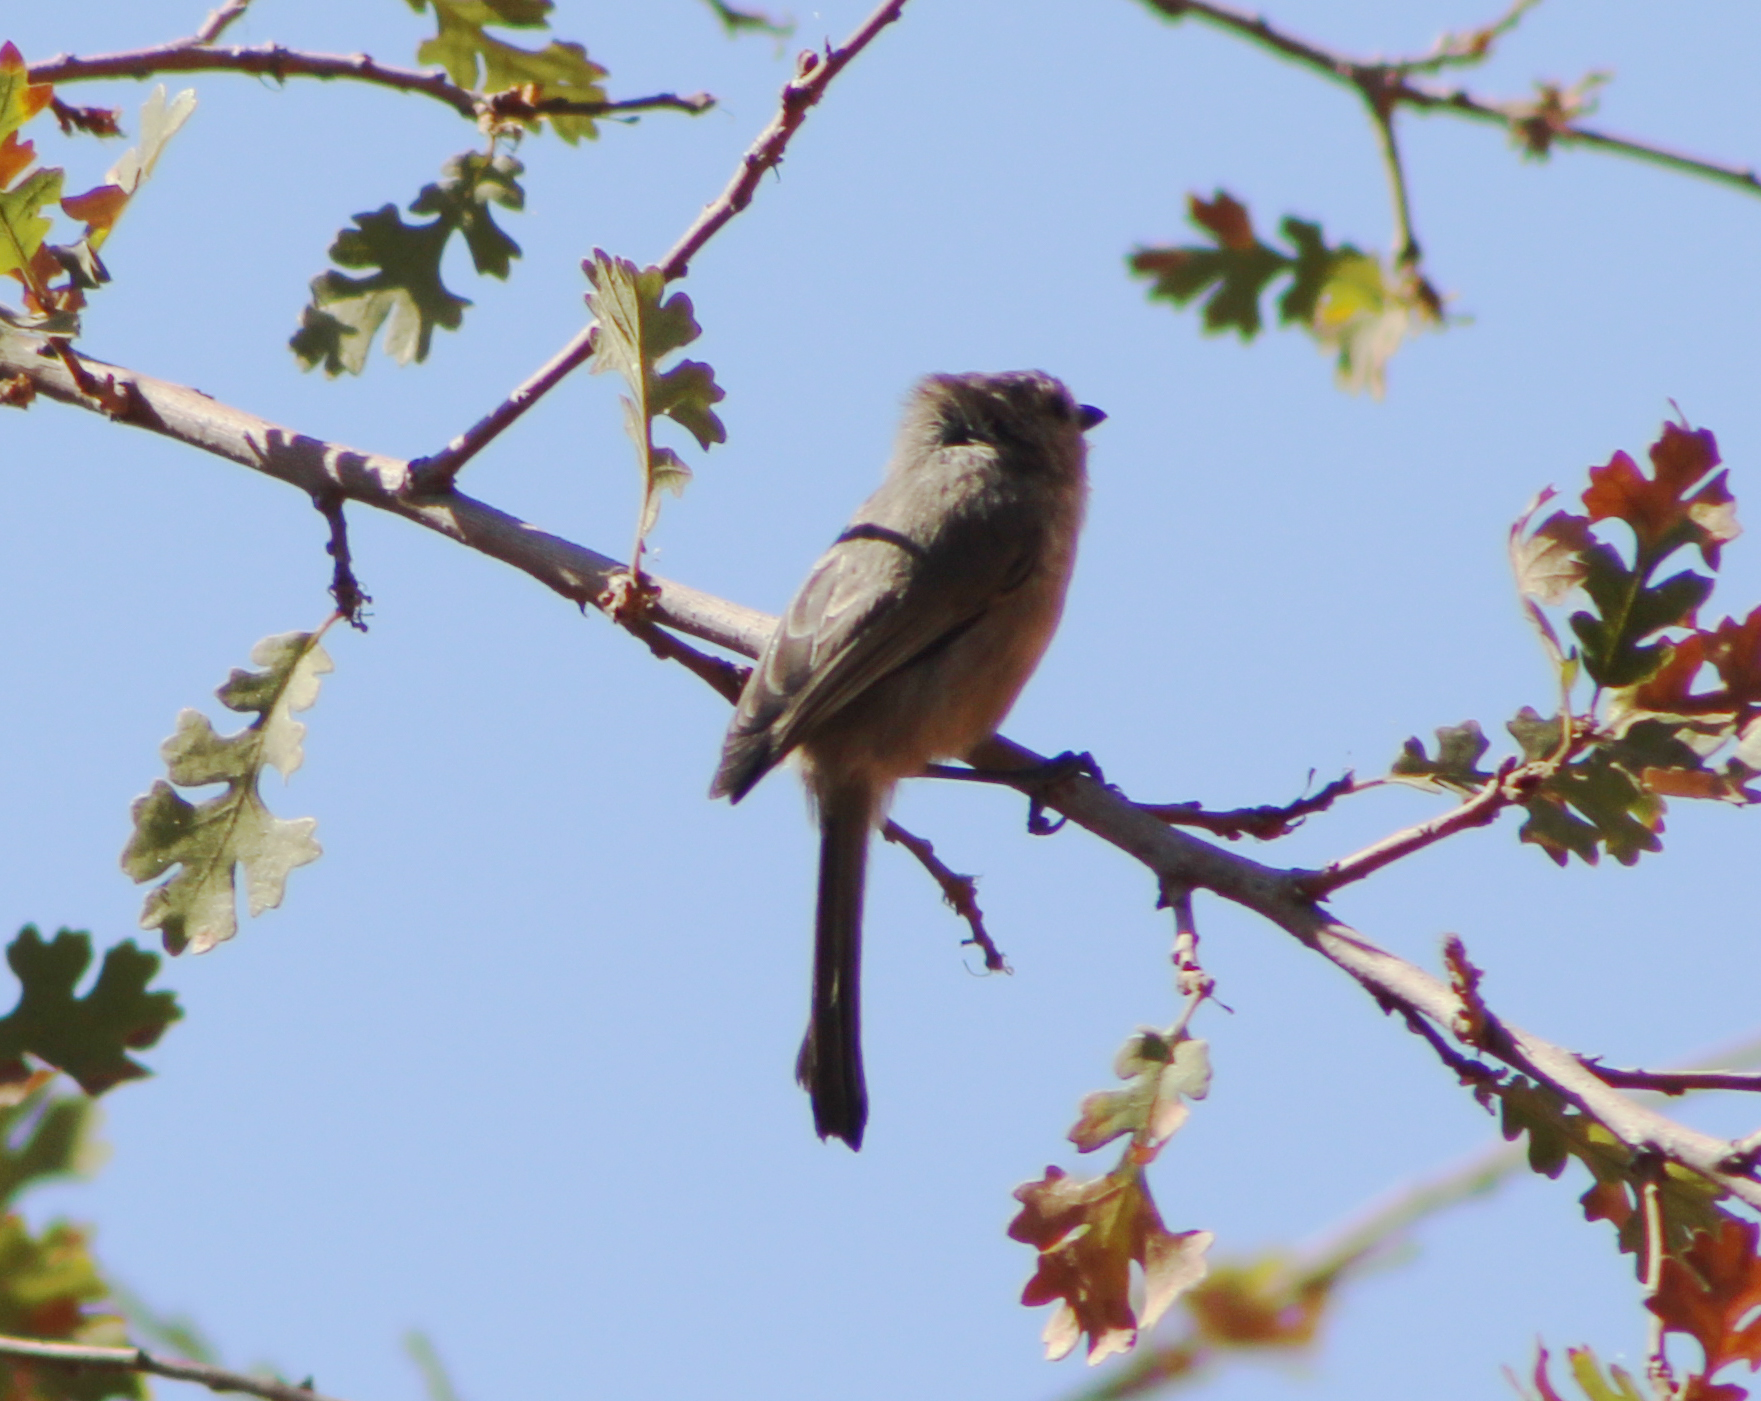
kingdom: Animalia
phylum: Chordata
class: Aves
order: Passeriformes
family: Aegithalidae
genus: Psaltriparus
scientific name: Psaltriparus minimus
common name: American bushtit
